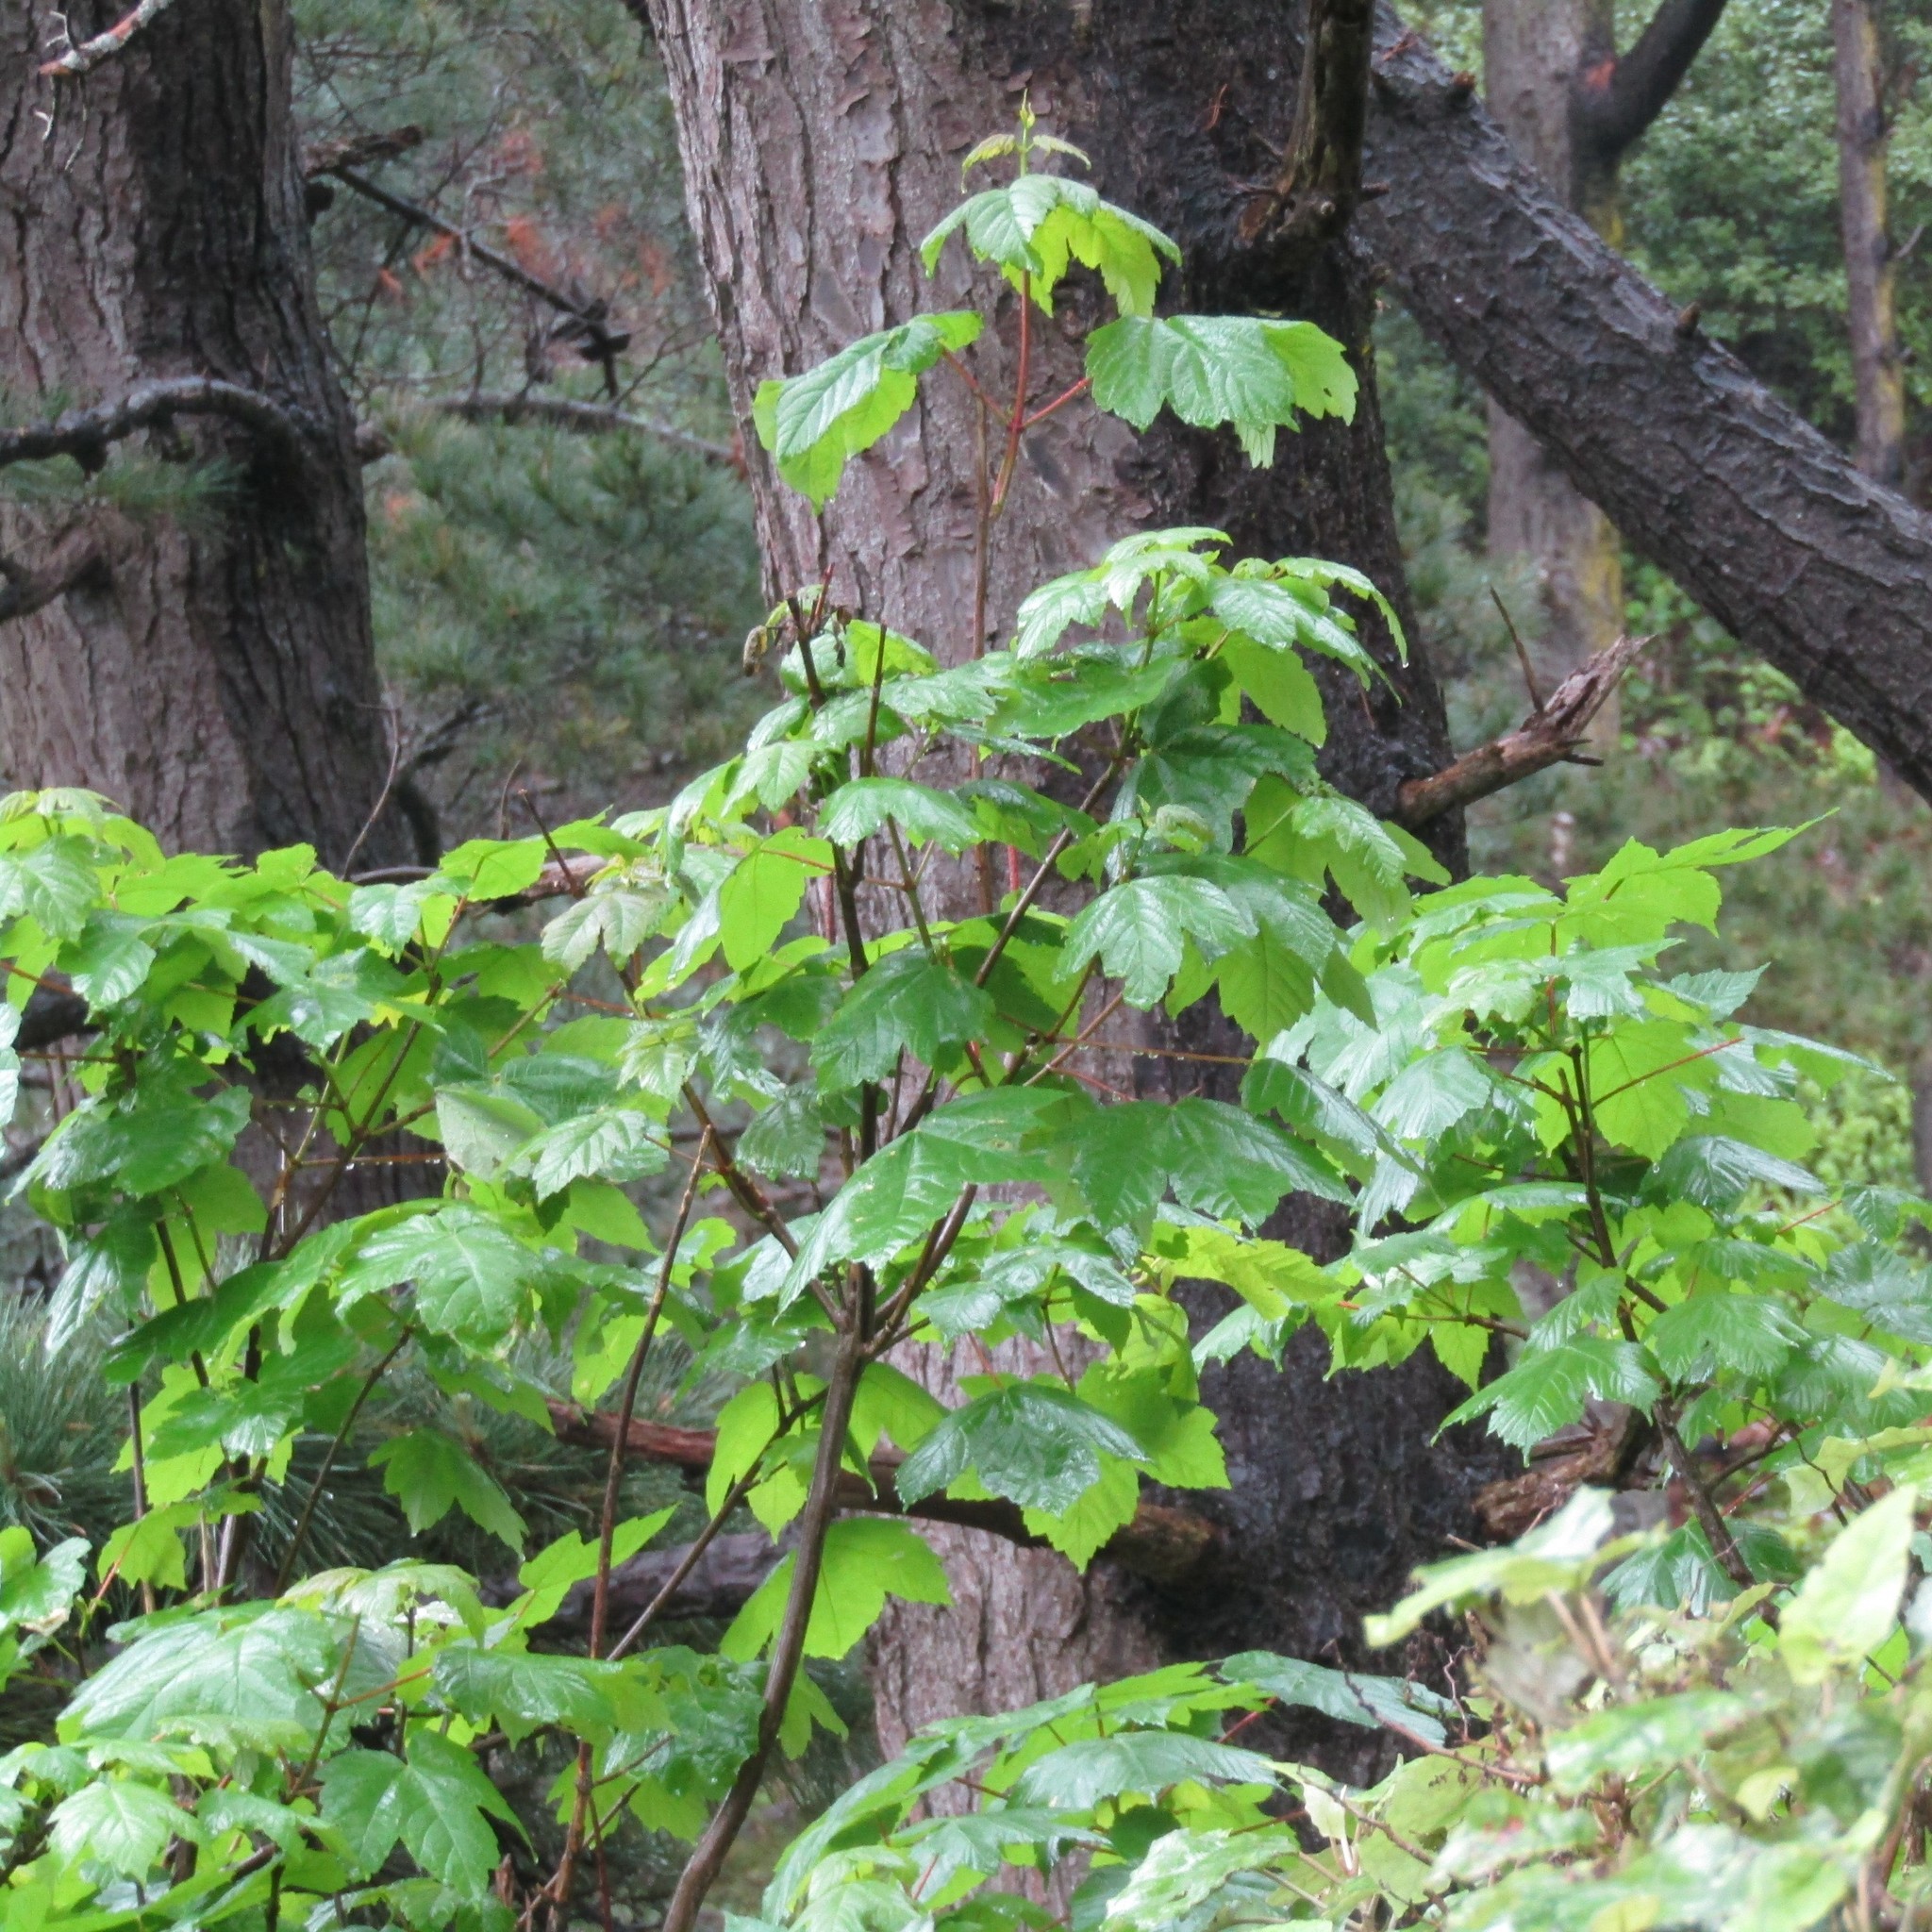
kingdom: Plantae
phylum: Tracheophyta
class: Magnoliopsida
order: Sapindales
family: Sapindaceae
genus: Acer
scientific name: Acer pseudoplatanus
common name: Sycamore
